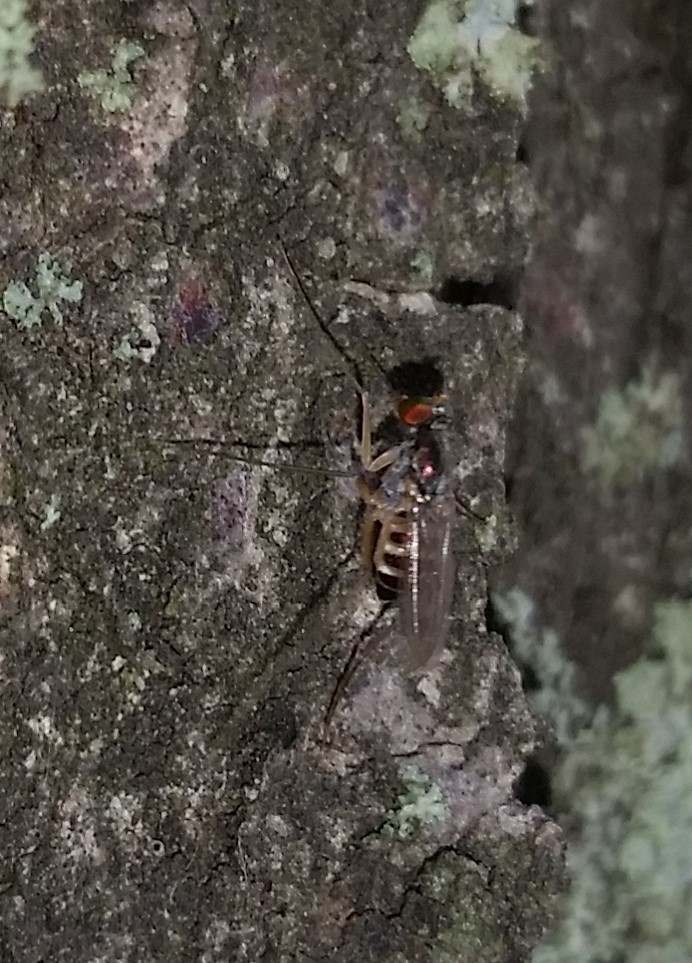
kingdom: Animalia
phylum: Arthropoda
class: Insecta
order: Diptera
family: Dolichopodidae
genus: Dactylomyia
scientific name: Dactylomyia lateralis
